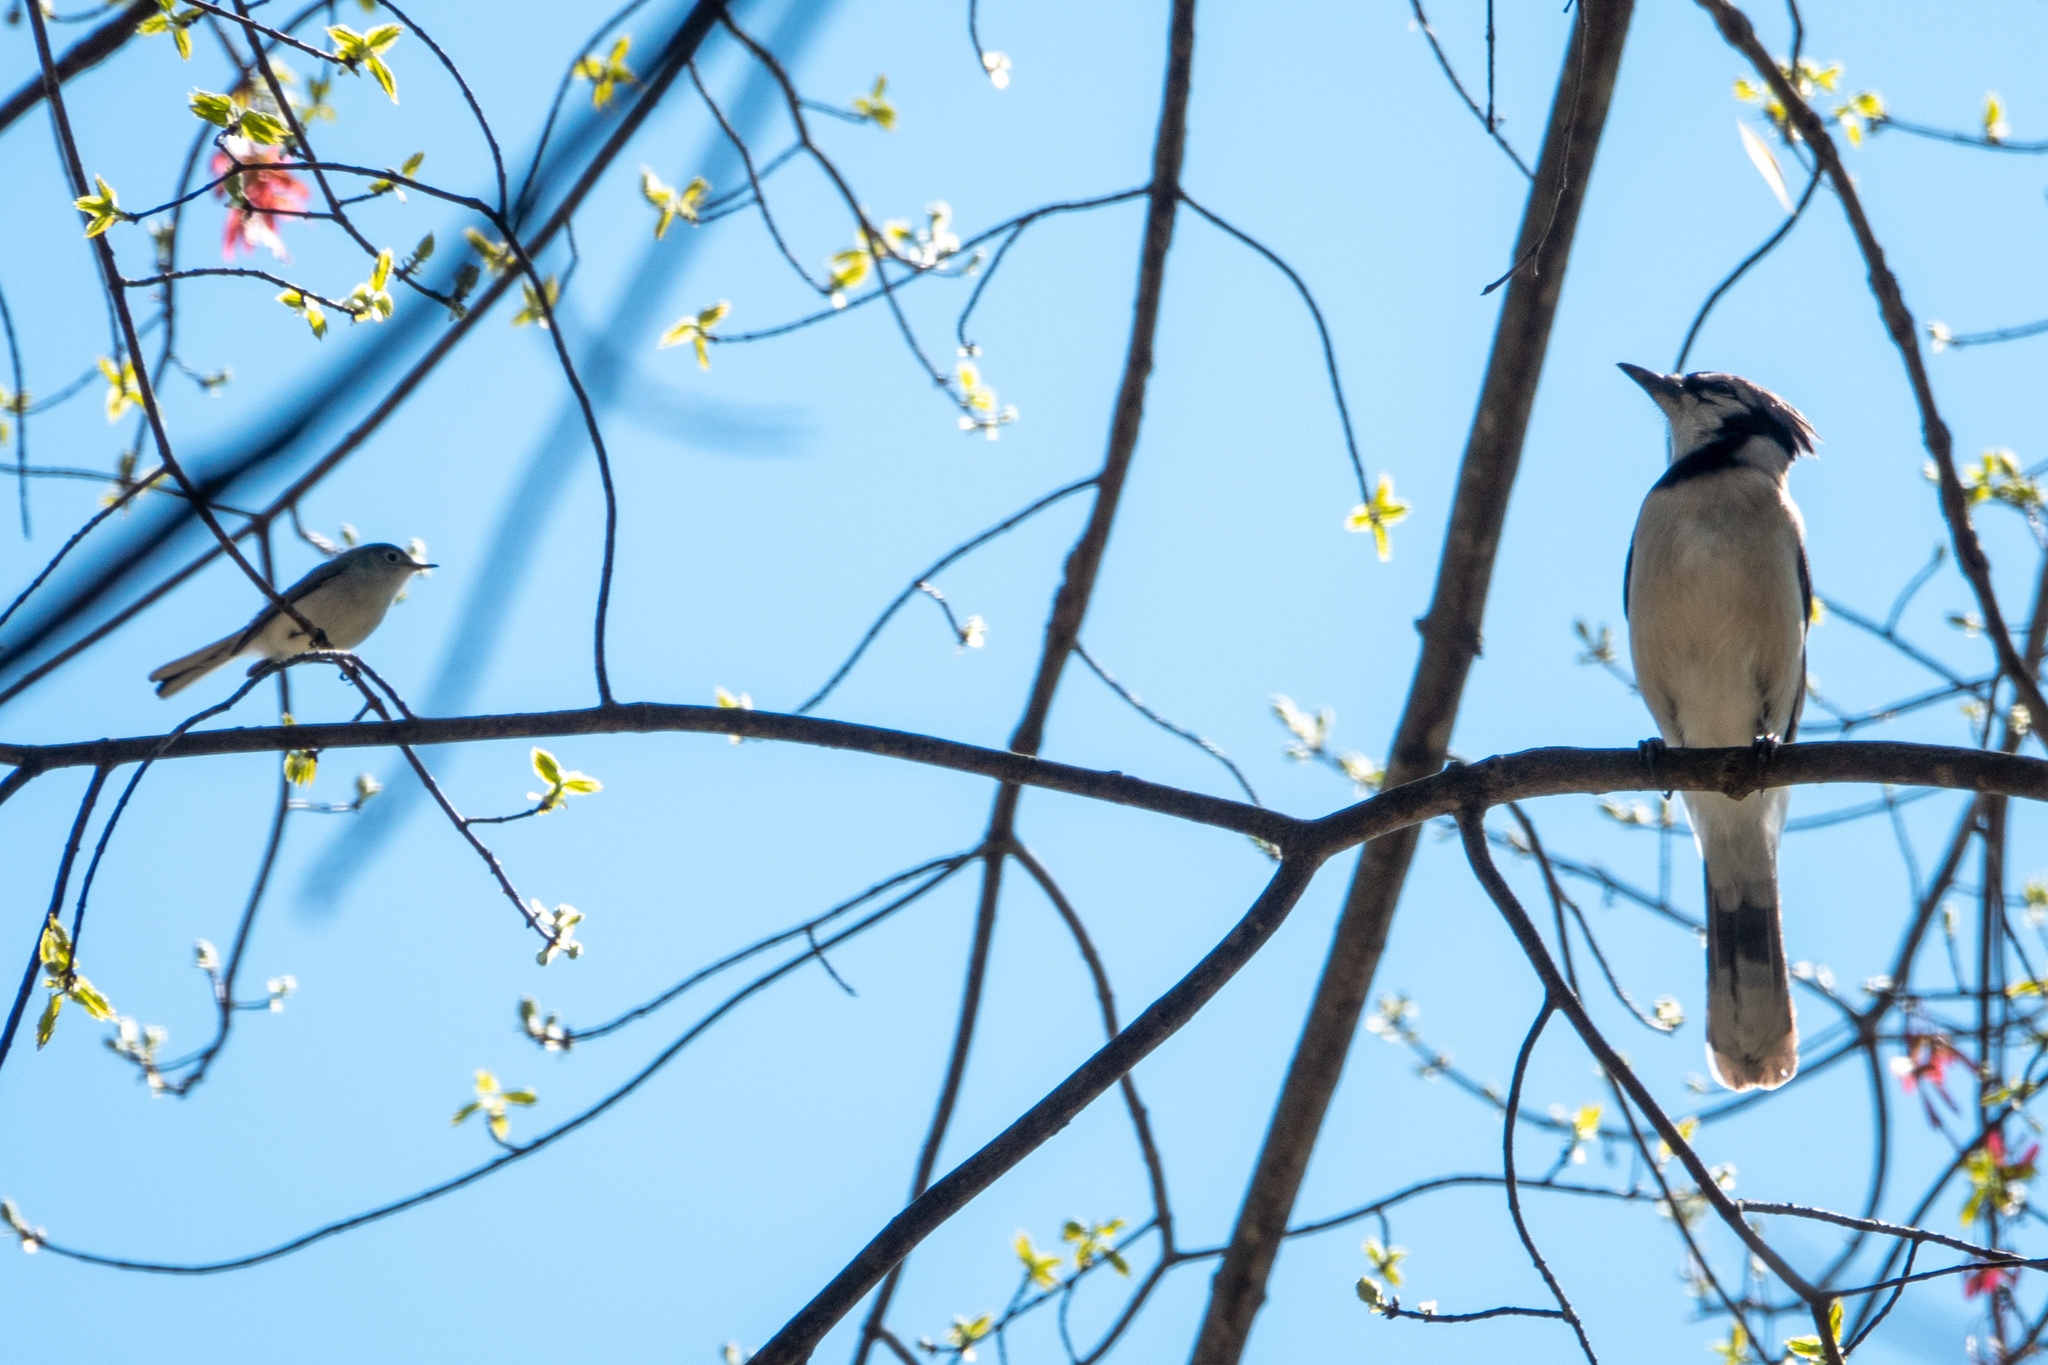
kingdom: Animalia
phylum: Chordata
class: Aves
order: Passeriformes
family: Corvidae
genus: Cyanocitta
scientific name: Cyanocitta cristata
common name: Blue jay
